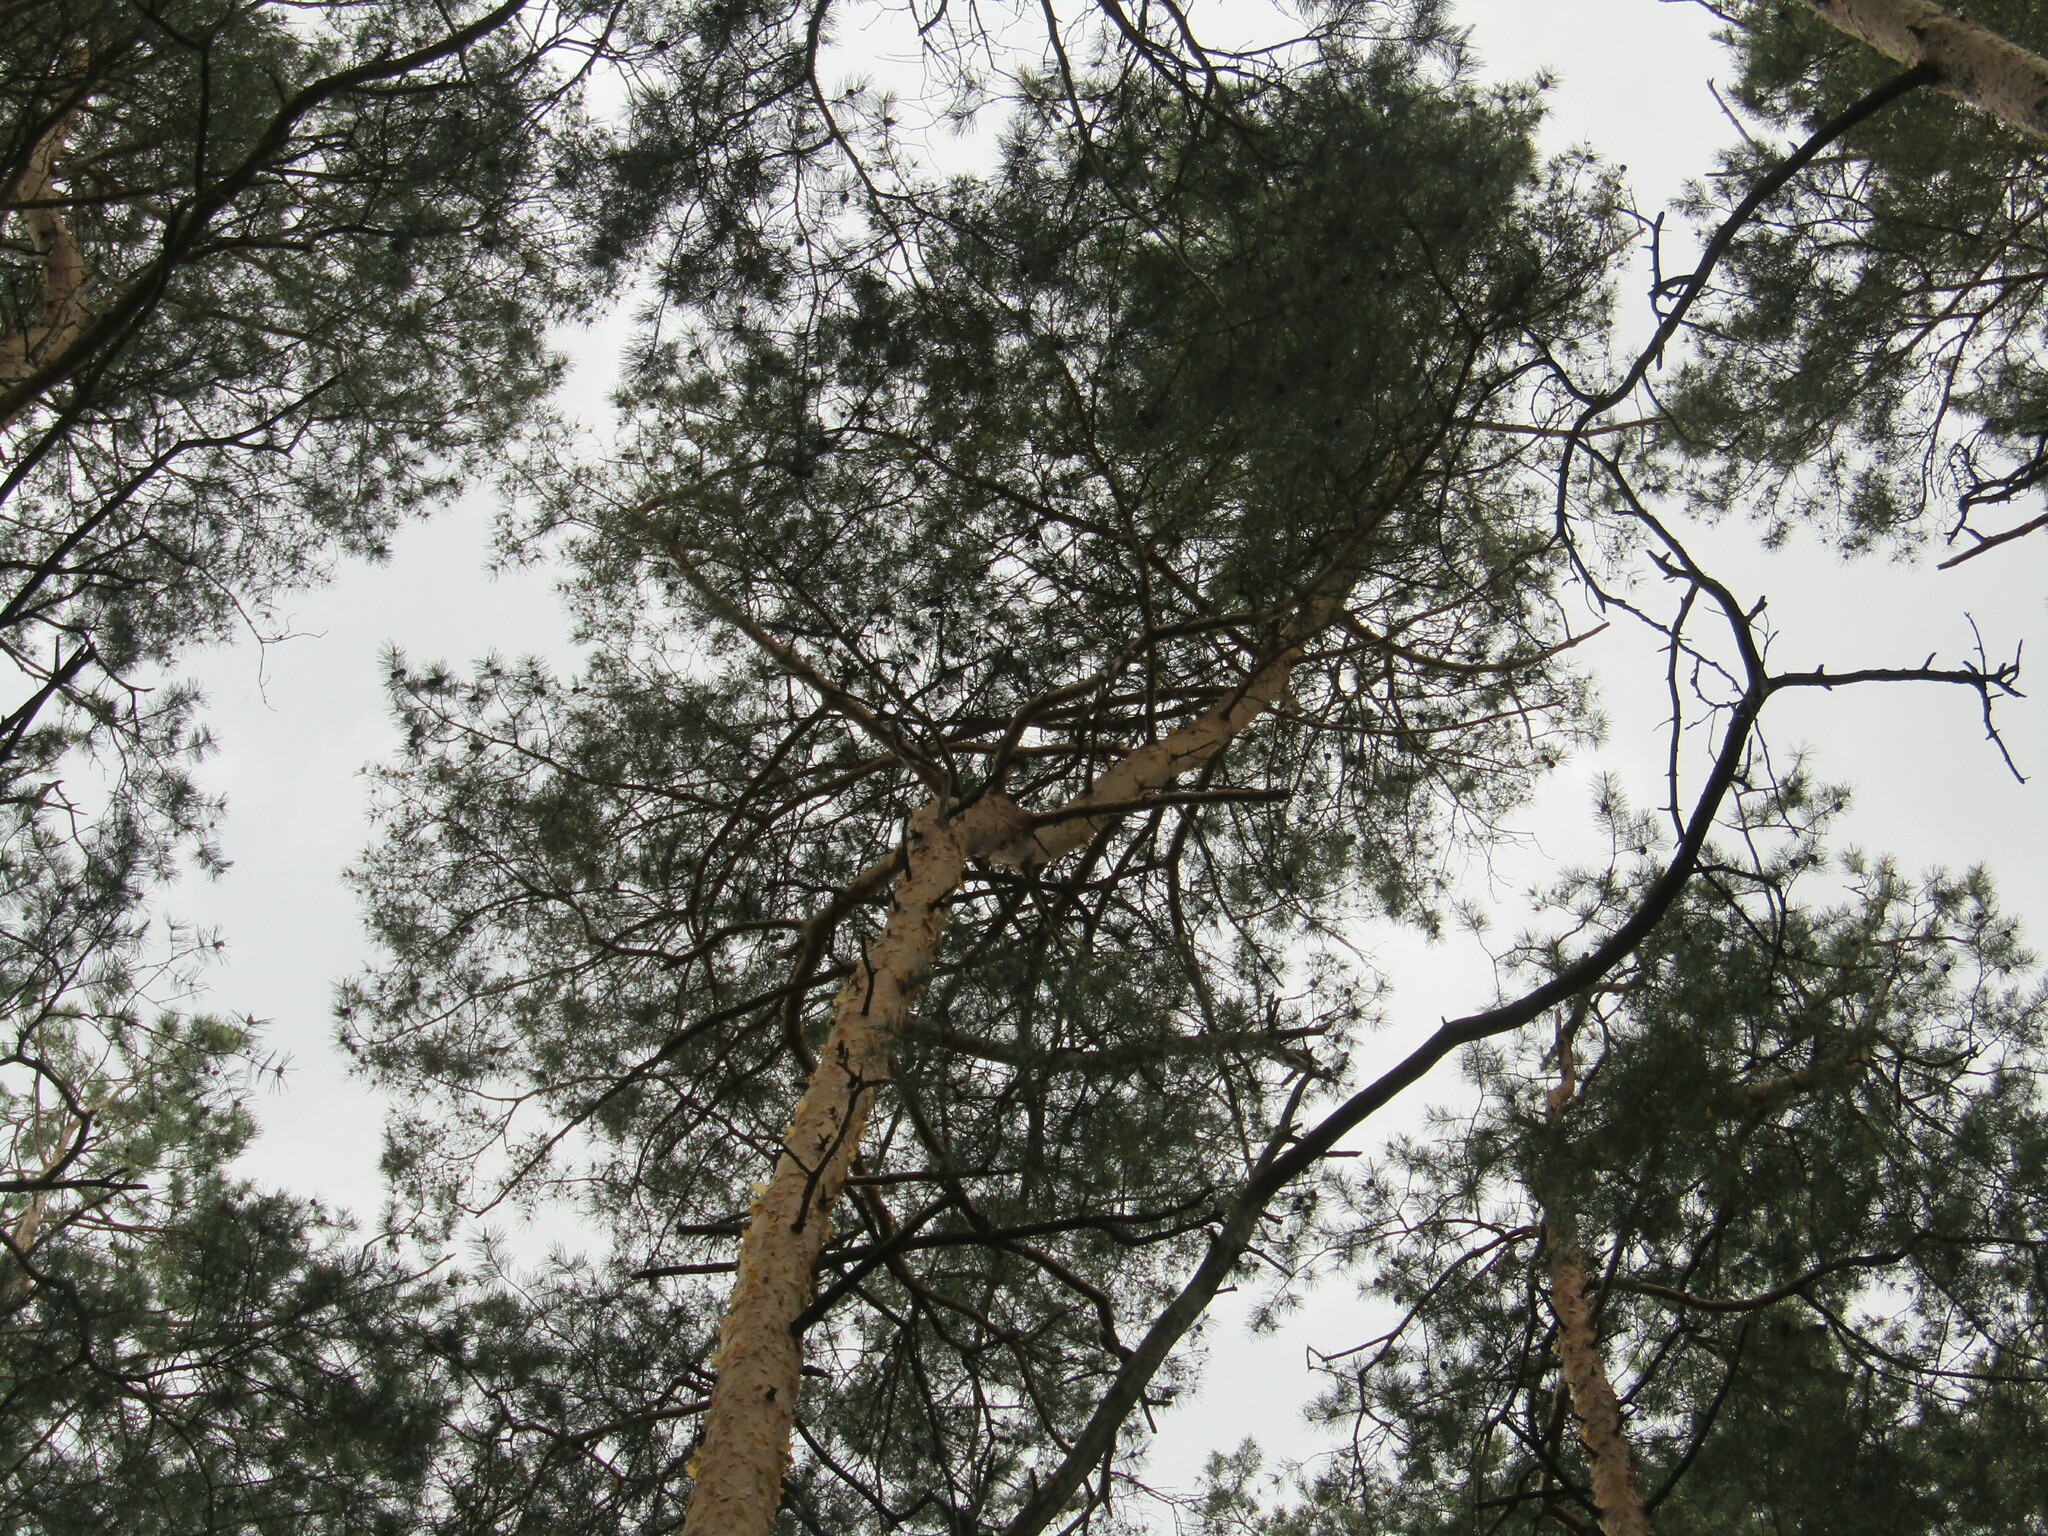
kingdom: Plantae
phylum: Tracheophyta
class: Pinopsida
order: Pinales
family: Pinaceae
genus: Pinus
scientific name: Pinus sylvestris
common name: Scots pine
